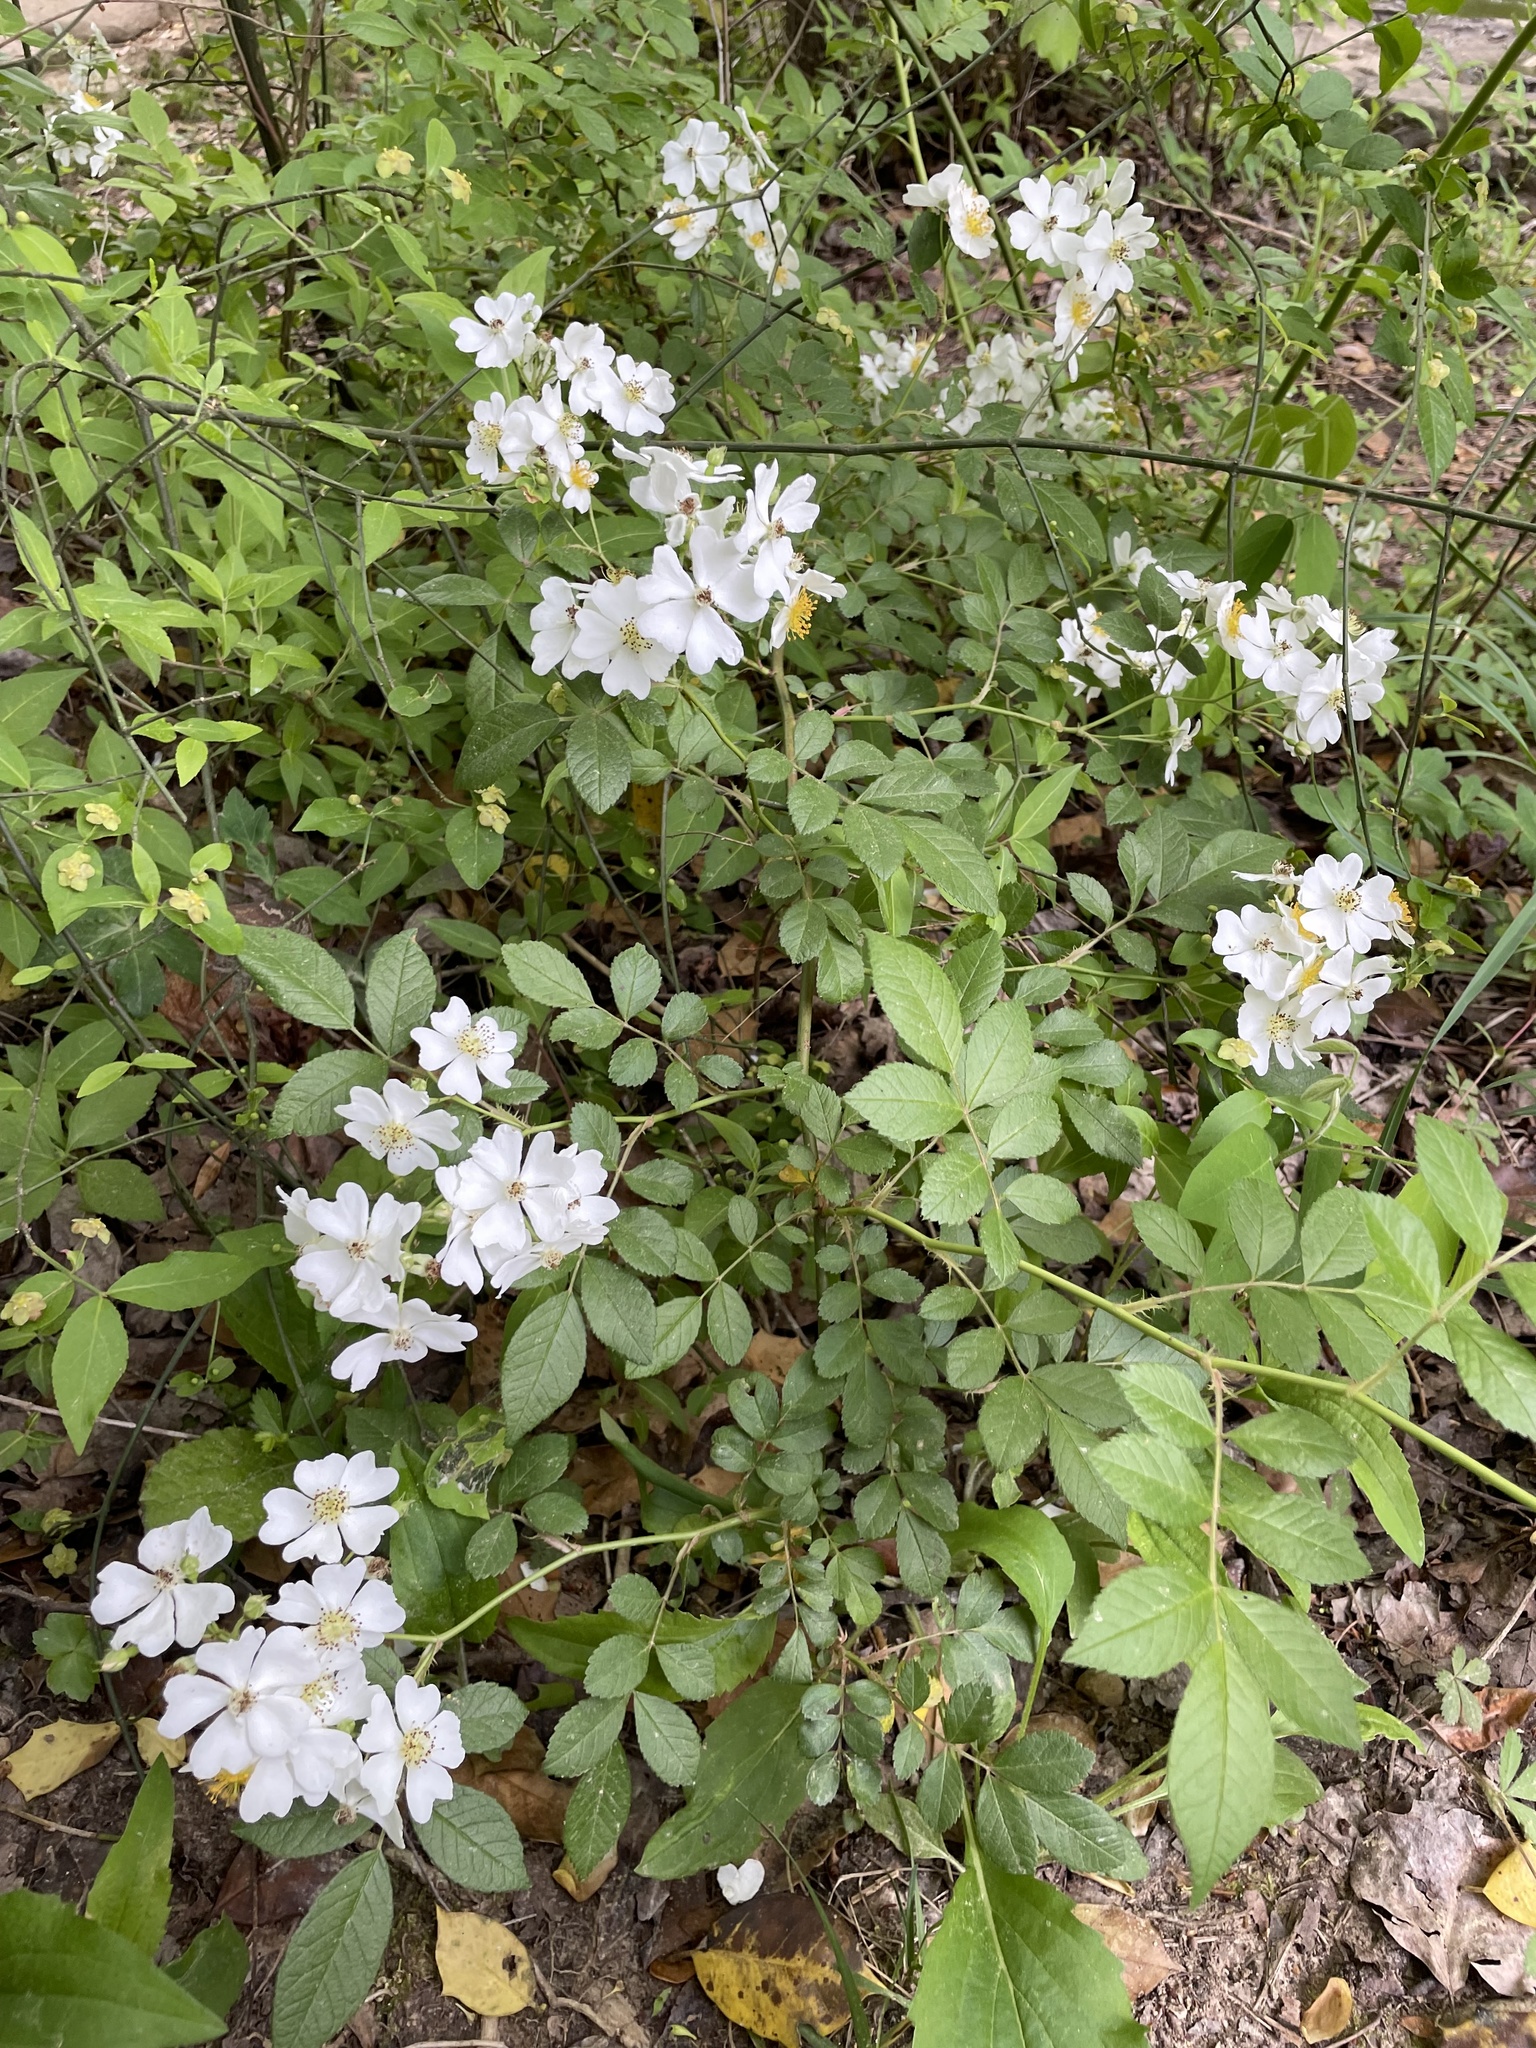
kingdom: Plantae
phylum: Tracheophyta
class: Magnoliopsida
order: Rosales
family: Rosaceae
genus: Rosa
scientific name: Rosa multiflora
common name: Multiflora rose
